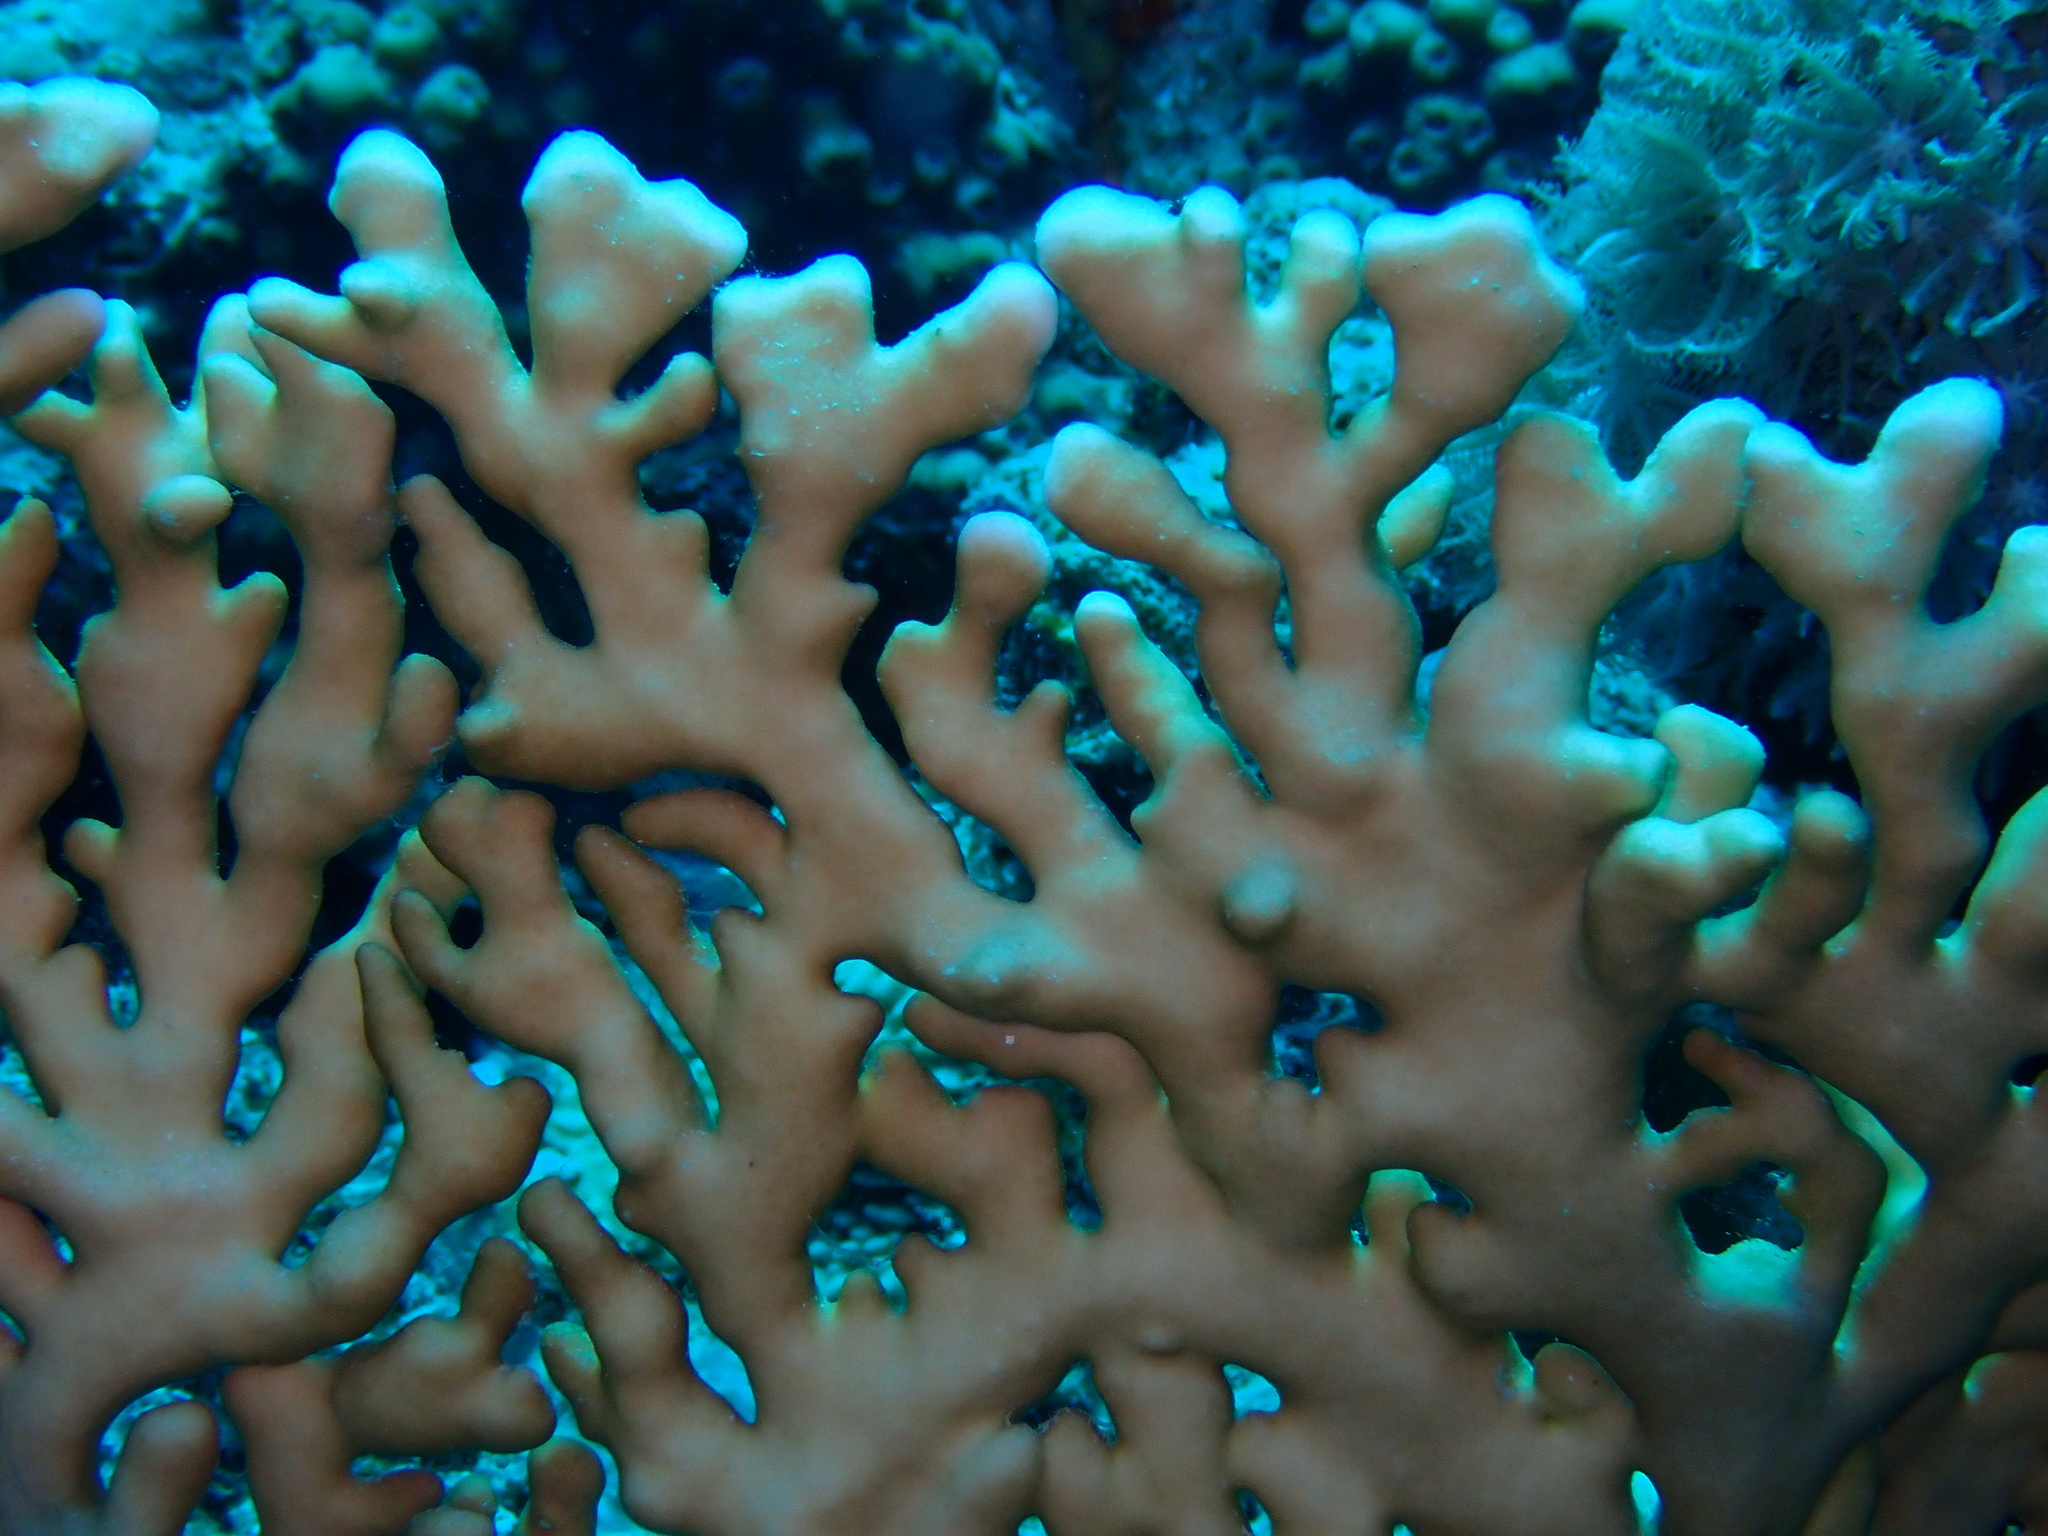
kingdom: Animalia
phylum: Cnidaria
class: Hydrozoa
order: Anthoathecata
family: Milleporidae
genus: Millepora
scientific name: Millepora dichotoma
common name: Ramified fire coral
